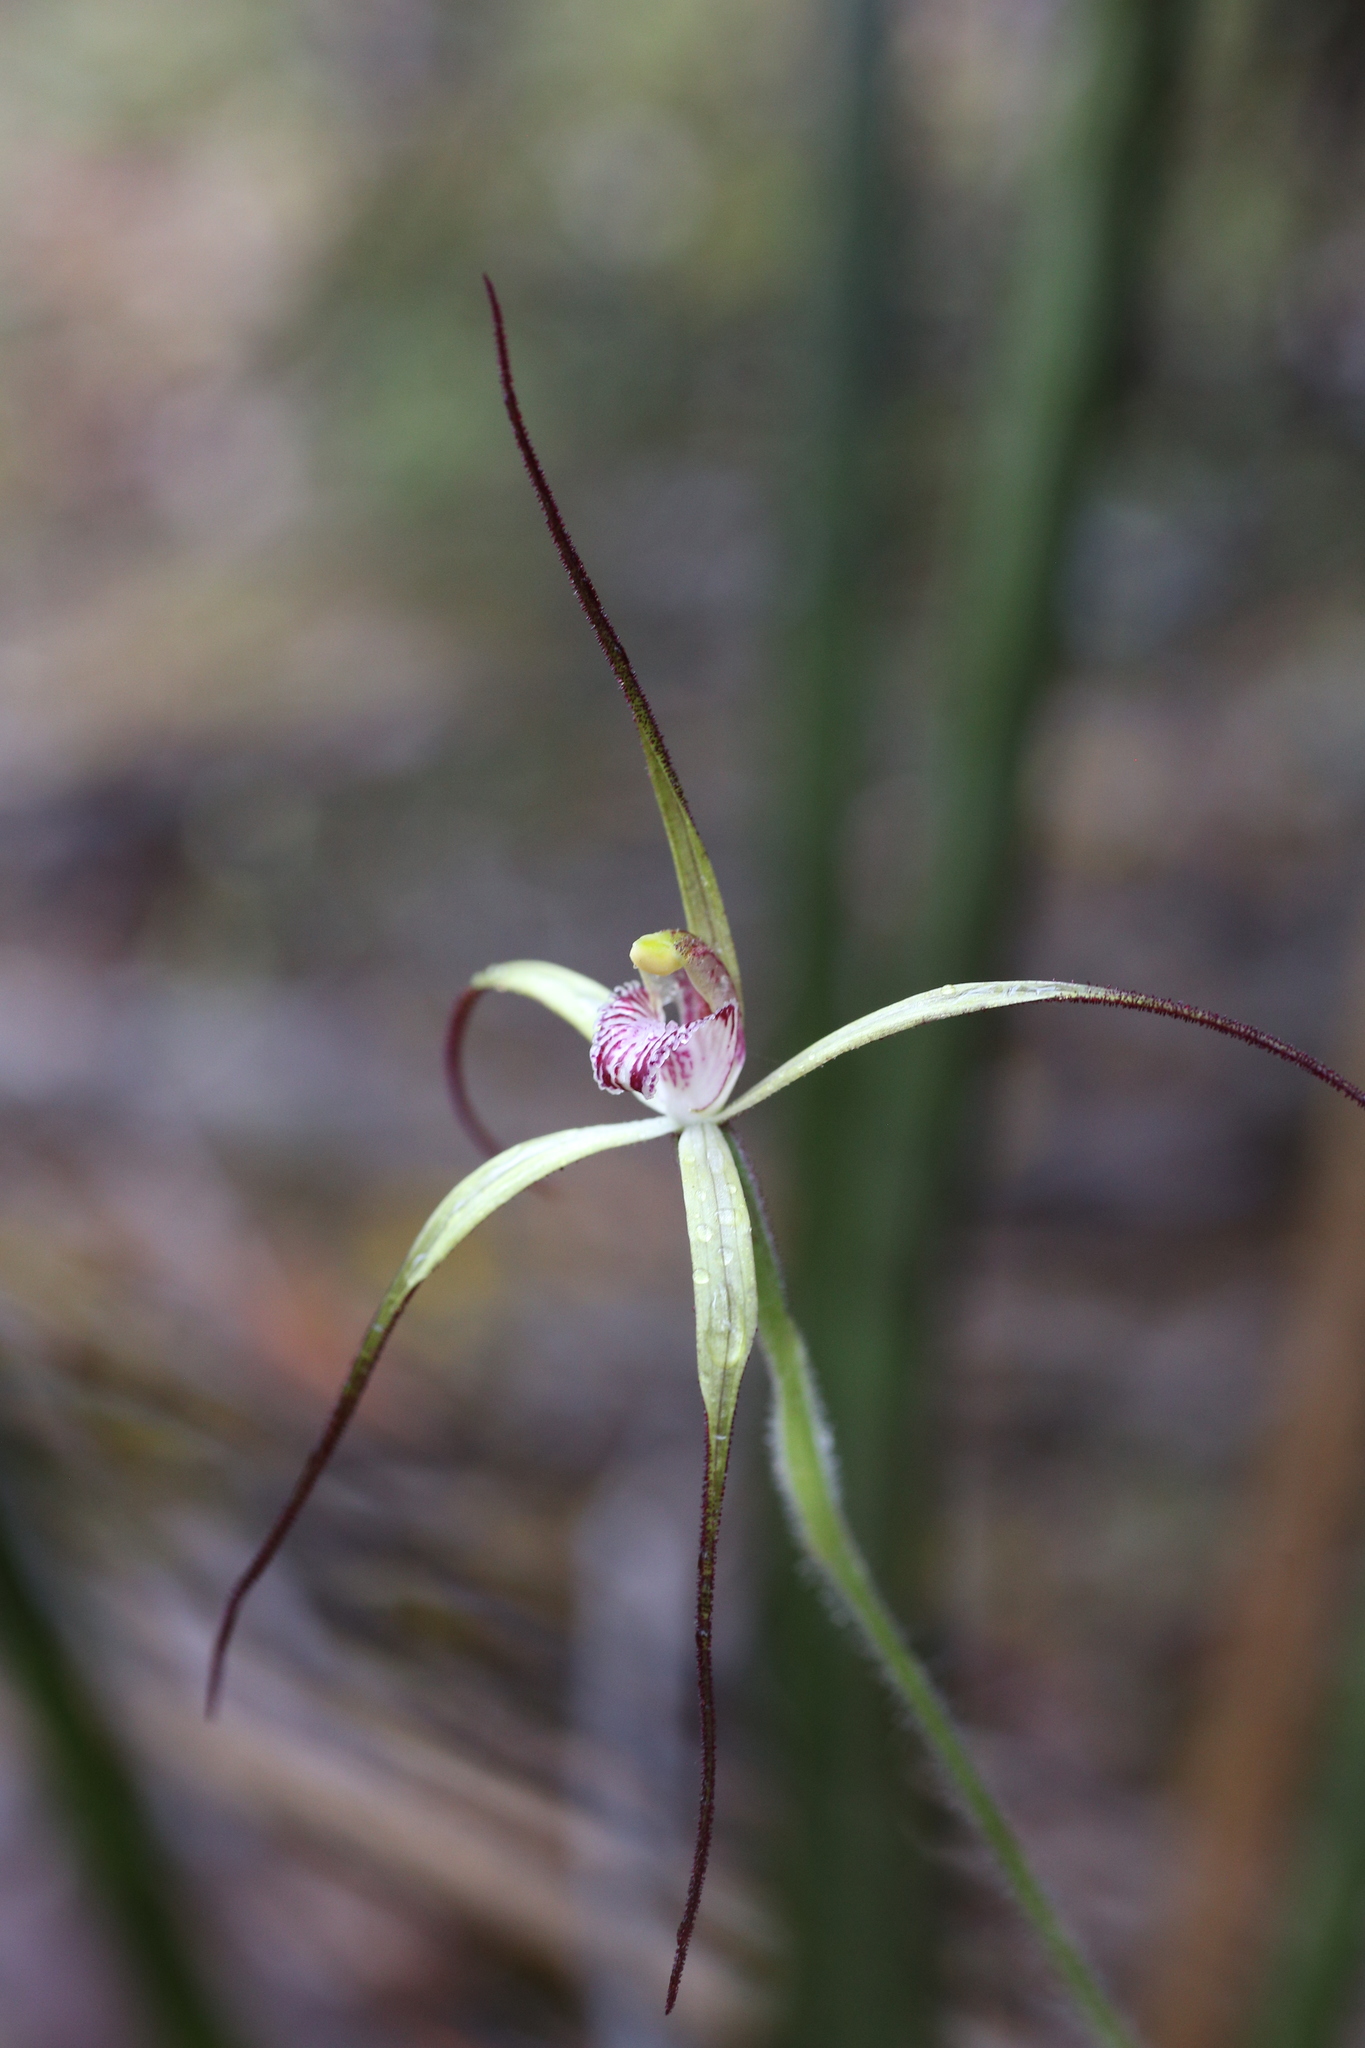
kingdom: Plantae
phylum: Tracheophyta
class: Liliopsida
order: Asparagales
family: Orchidaceae
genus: Caladenia
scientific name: Caladenia abbreviata
